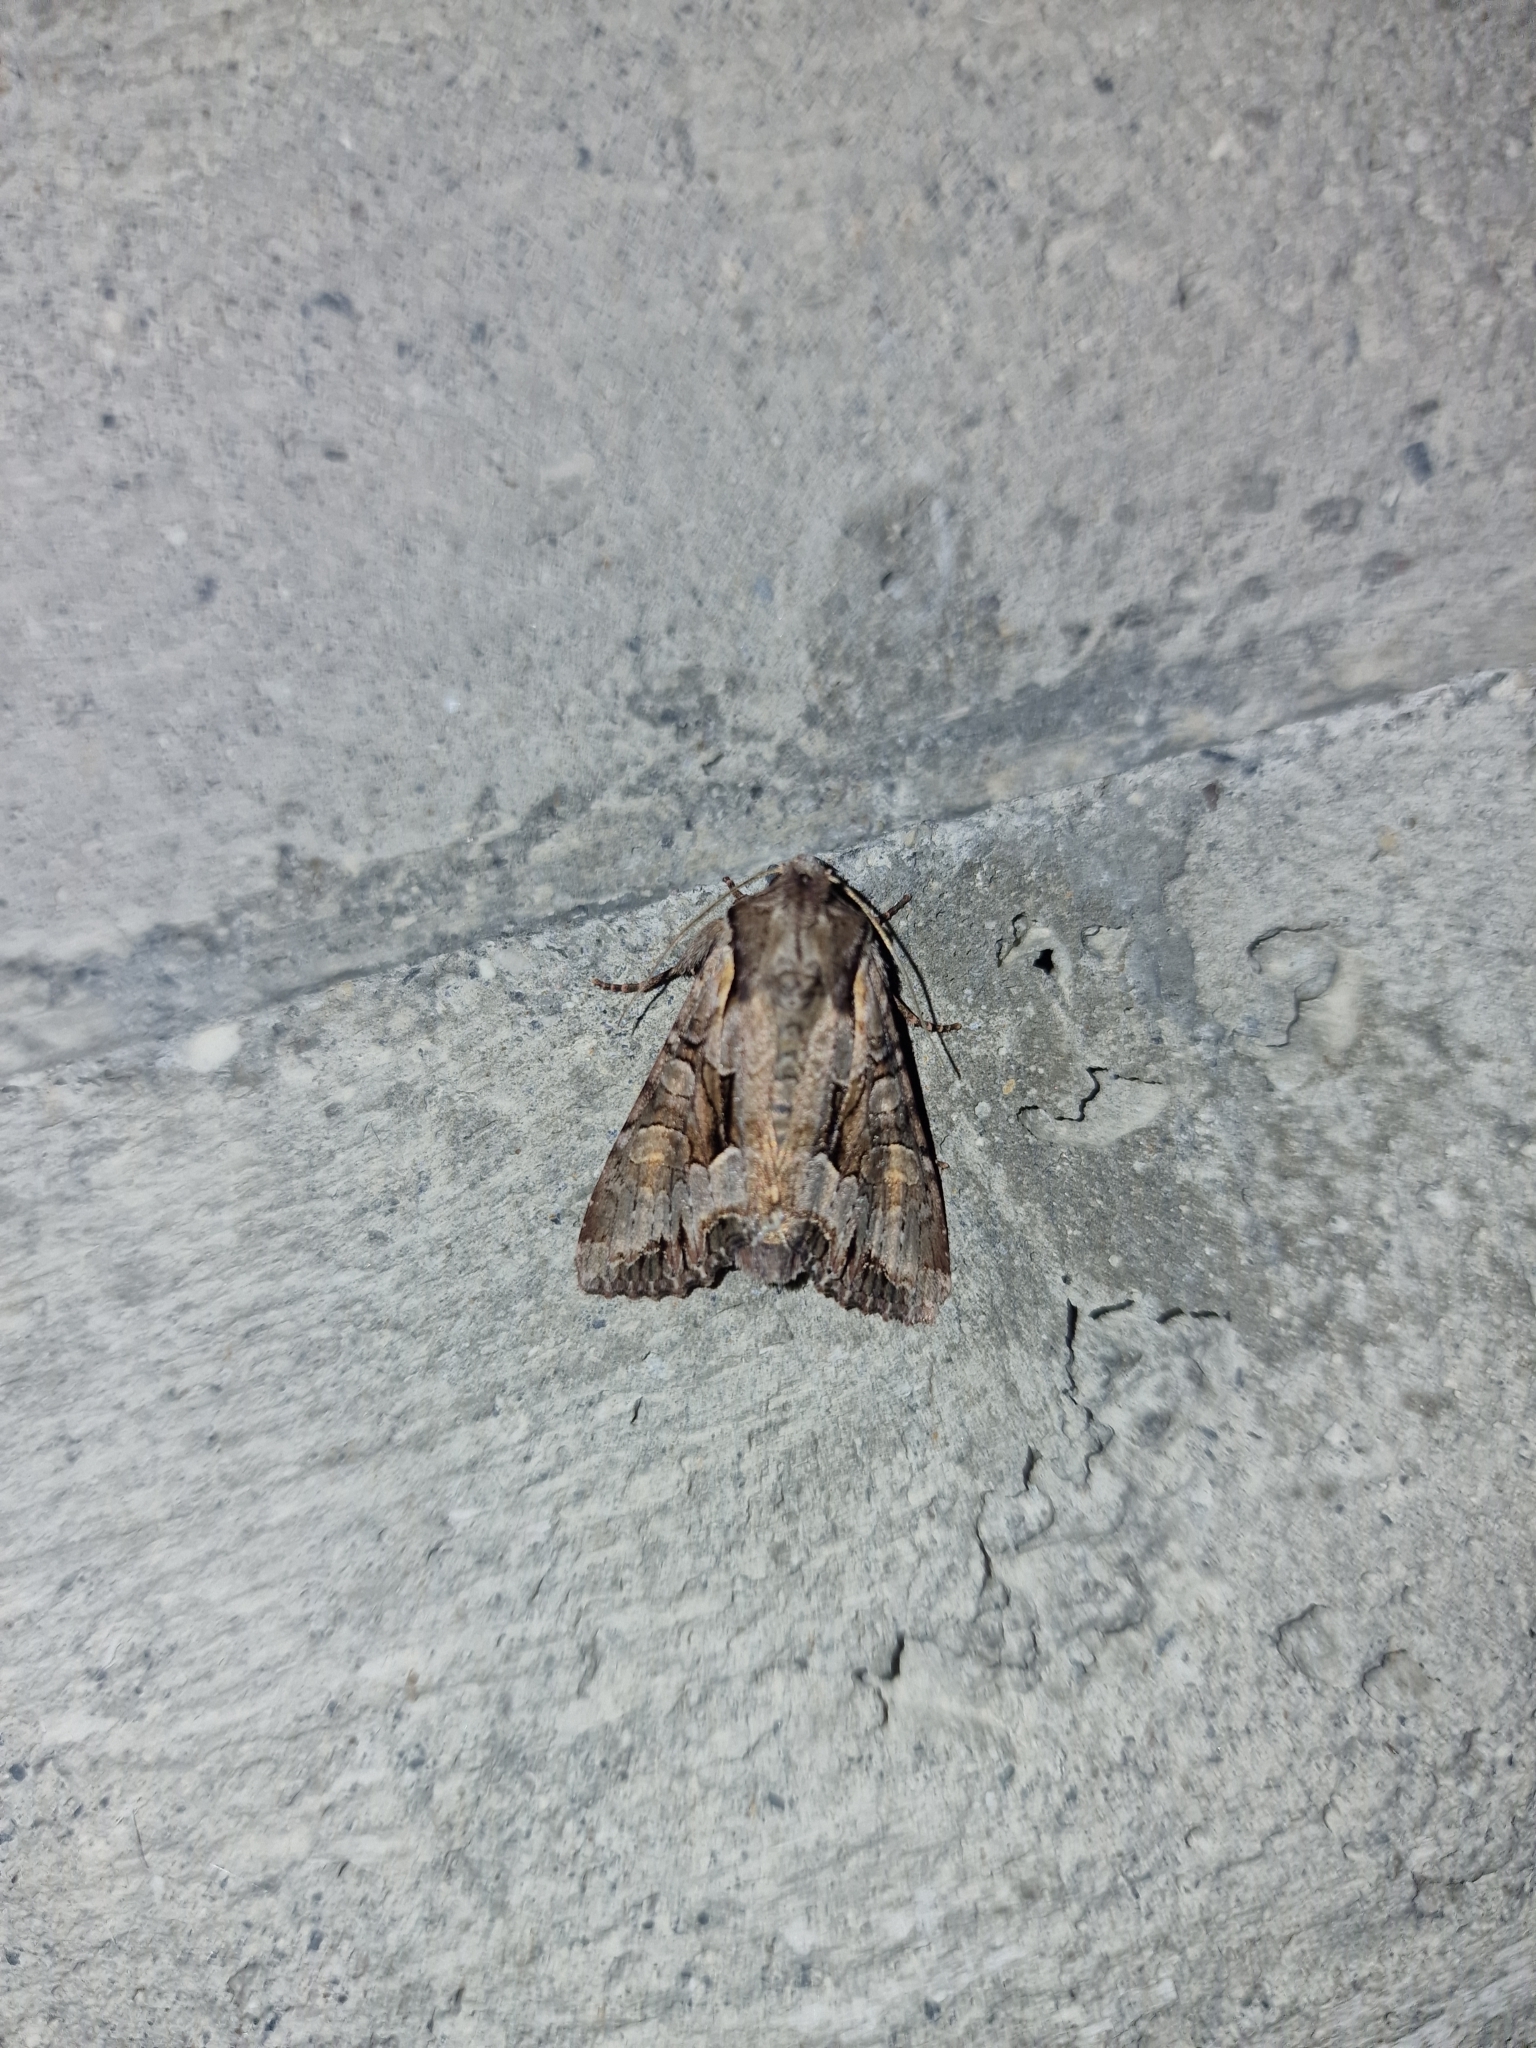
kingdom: Animalia
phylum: Arthropoda
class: Insecta
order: Lepidoptera
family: Noctuidae
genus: Lacanobia
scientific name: Lacanobia w-latinum
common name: Light brocade
